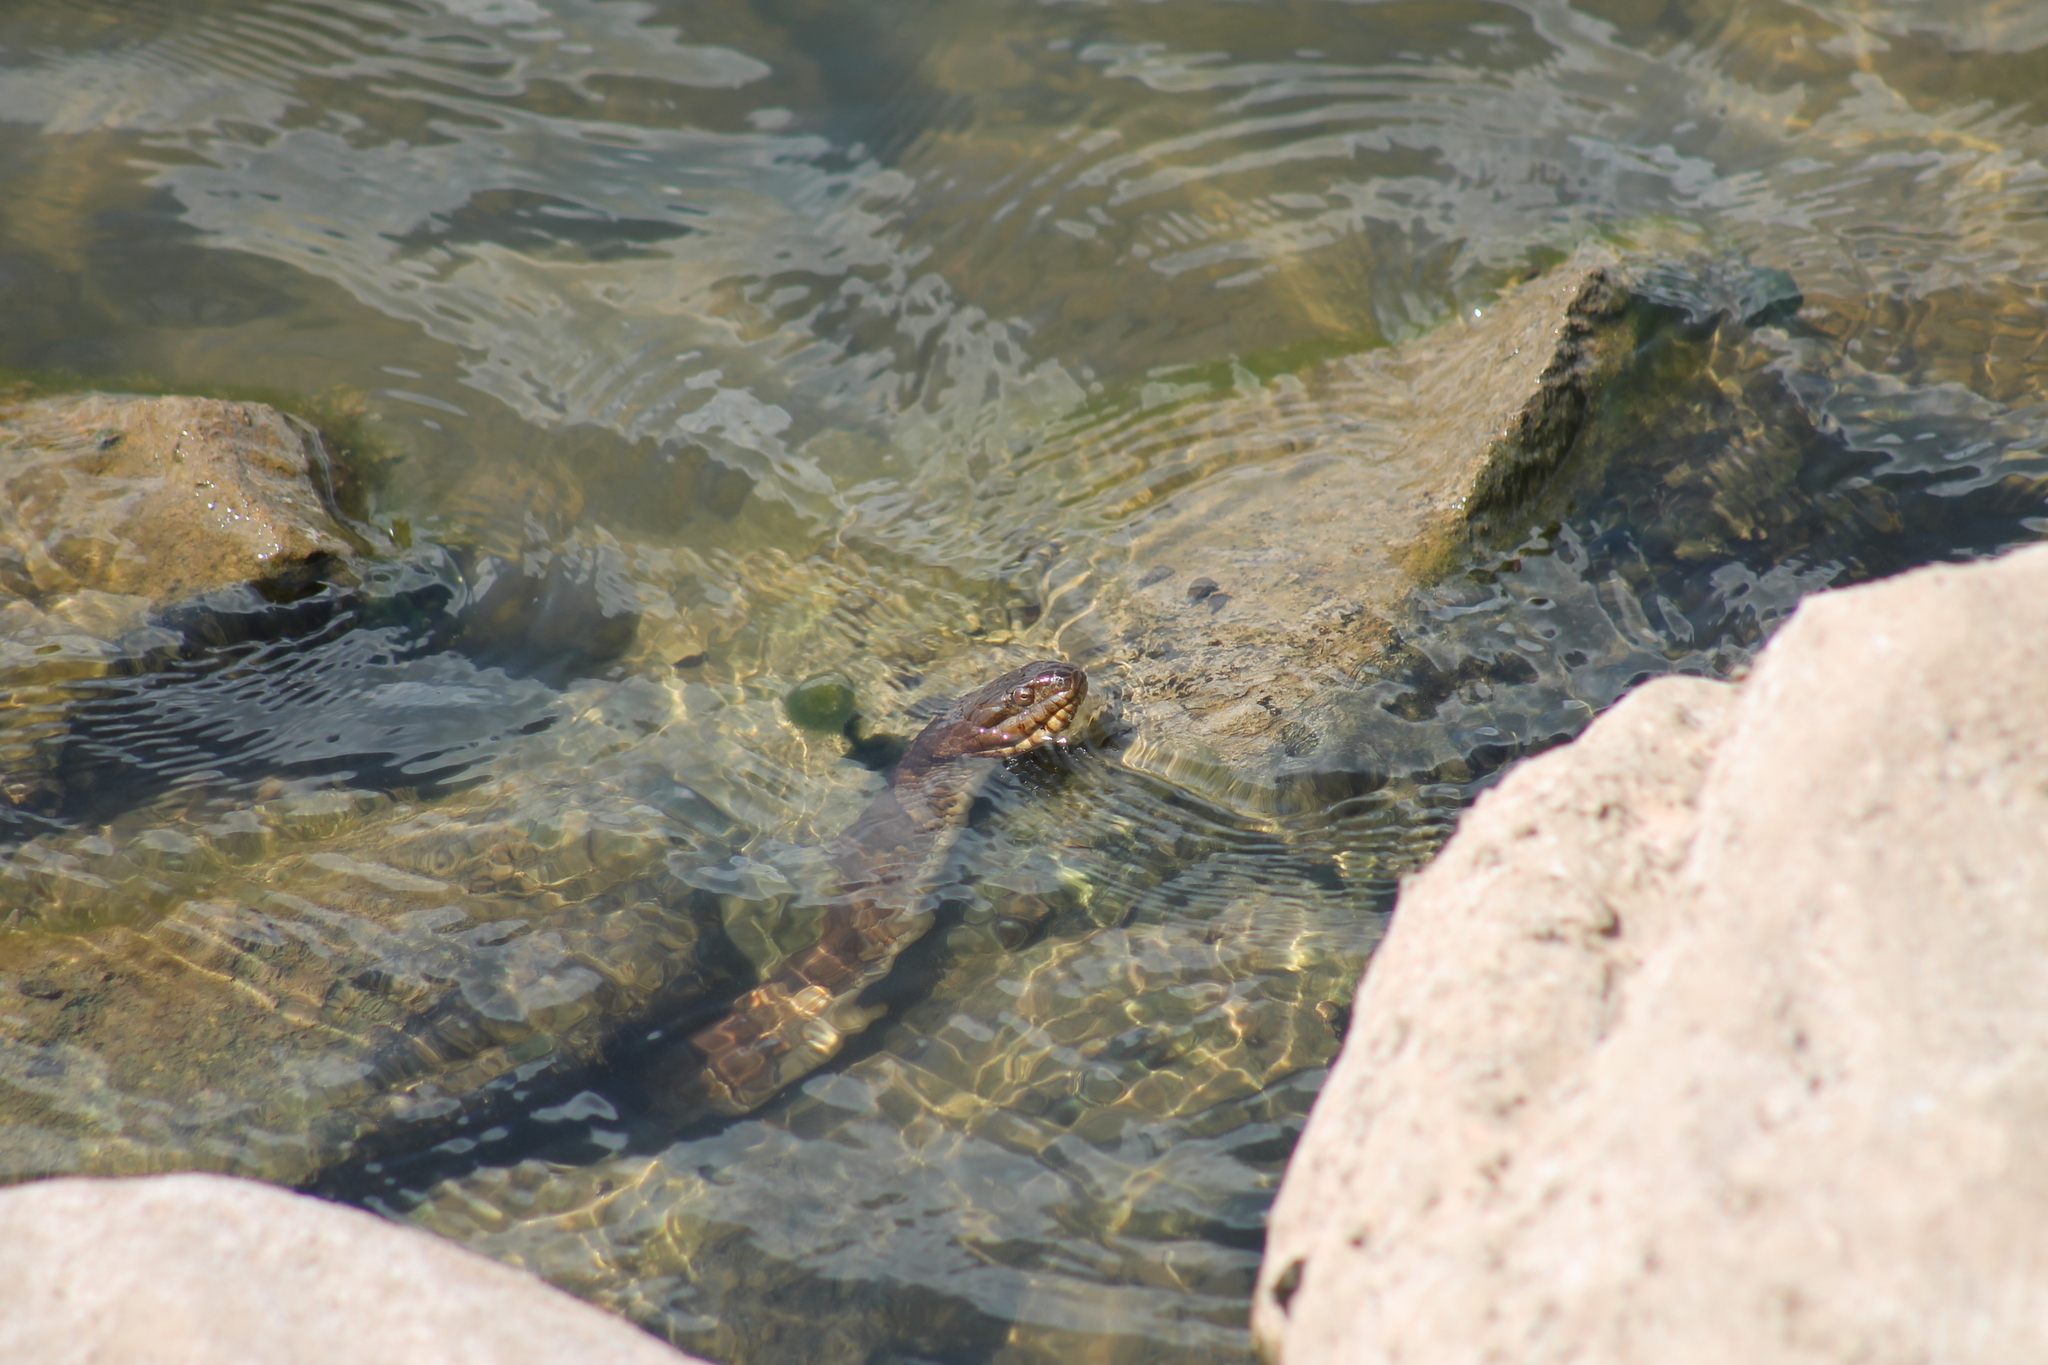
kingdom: Animalia
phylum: Chordata
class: Squamata
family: Colubridae
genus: Nerodia
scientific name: Nerodia sipedon
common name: Northern water snake
